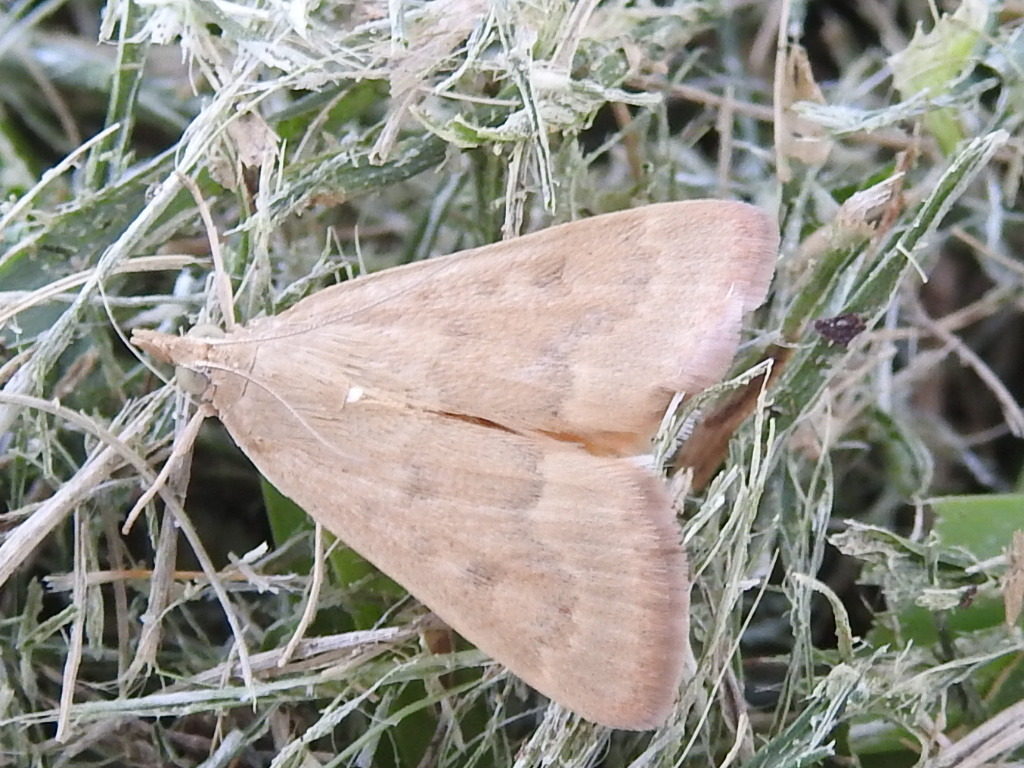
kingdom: Animalia
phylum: Arthropoda
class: Insecta
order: Lepidoptera
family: Crambidae
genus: Achyra
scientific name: Achyra rantalis
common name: Garden webworm
